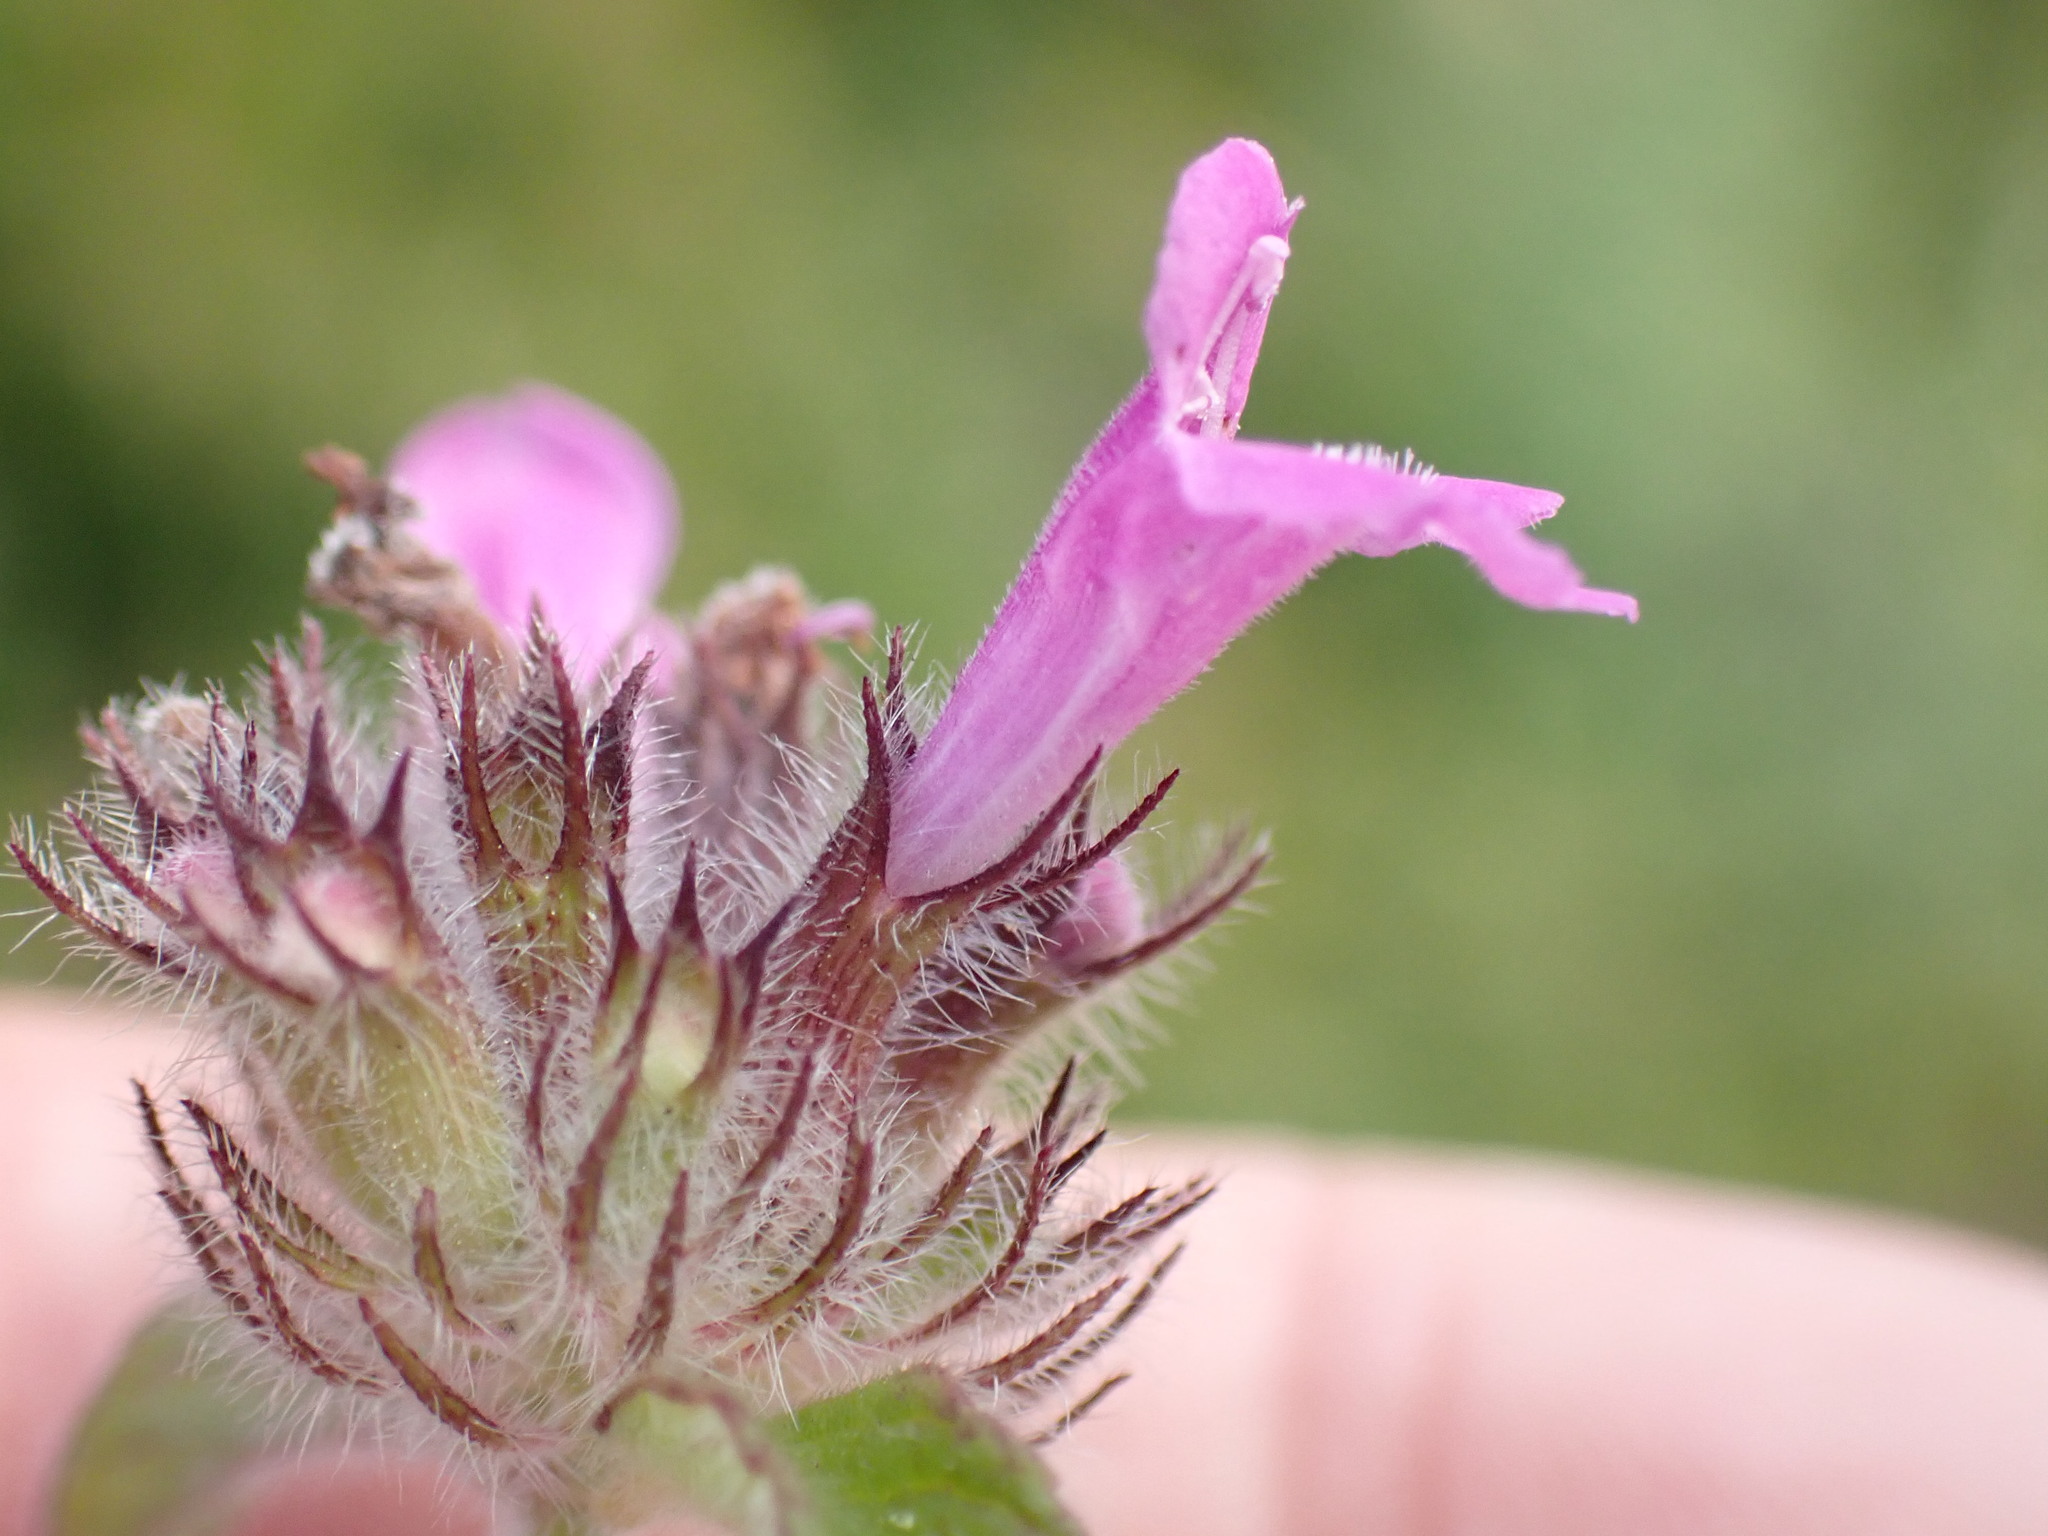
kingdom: Plantae
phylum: Tracheophyta
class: Magnoliopsida
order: Lamiales
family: Lamiaceae
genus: Clinopodium
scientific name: Clinopodium vulgare
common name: Wild basil
